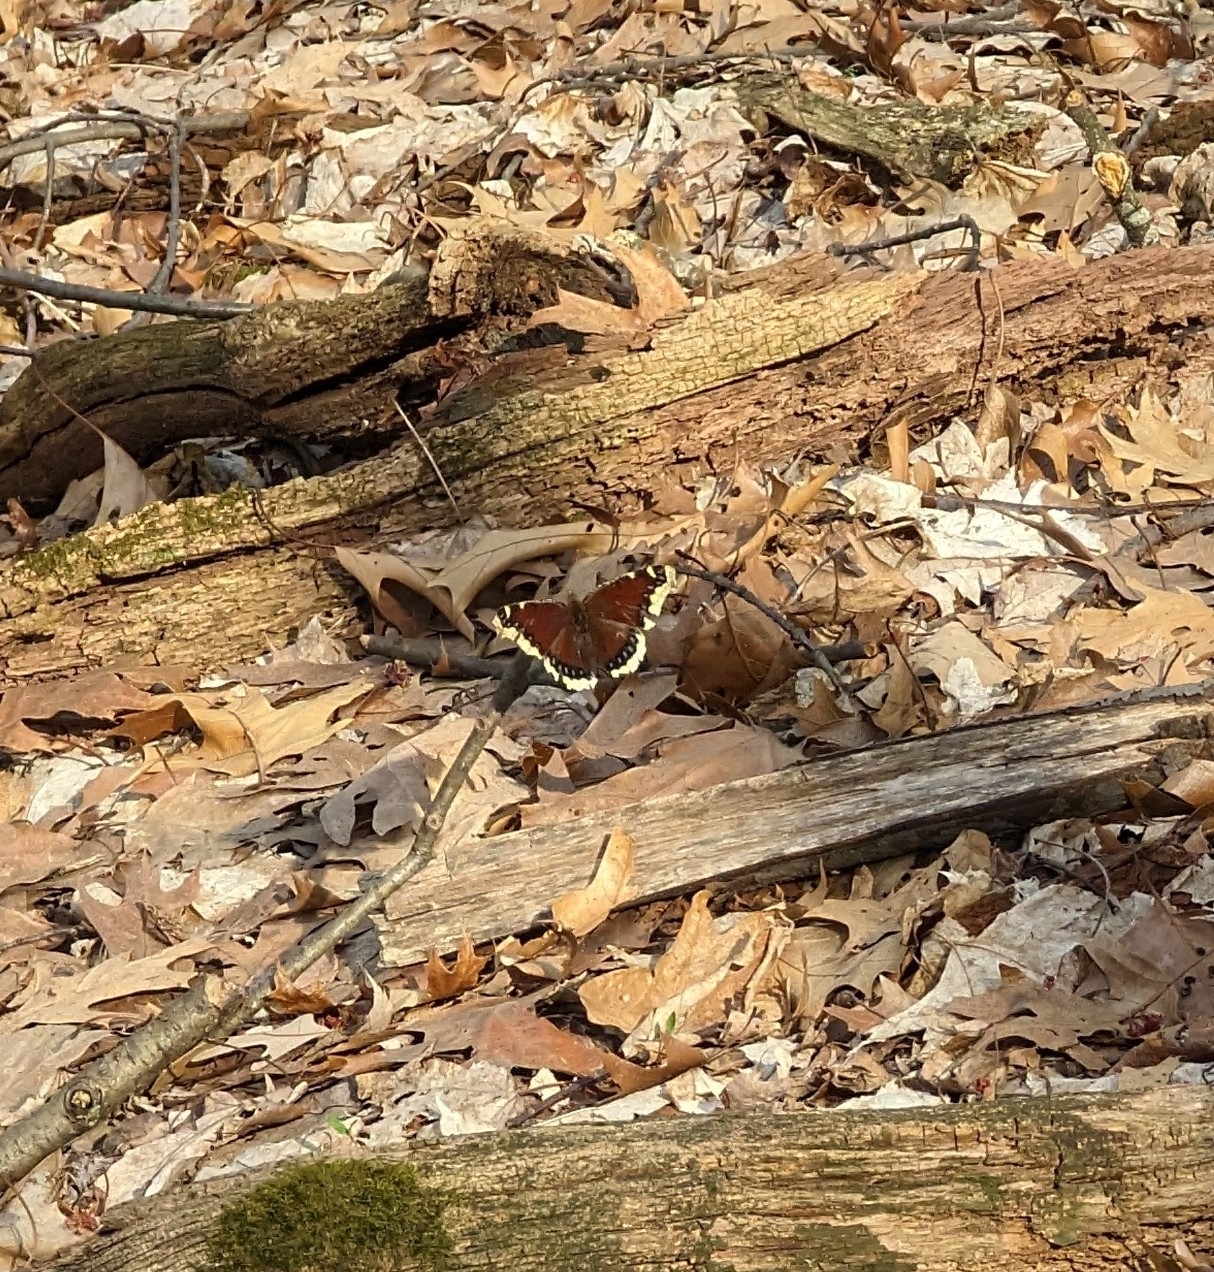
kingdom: Animalia
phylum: Arthropoda
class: Insecta
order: Lepidoptera
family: Nymphalidae
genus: Nymphalis
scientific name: Nymphalis antiopa
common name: Camberwell beauty
